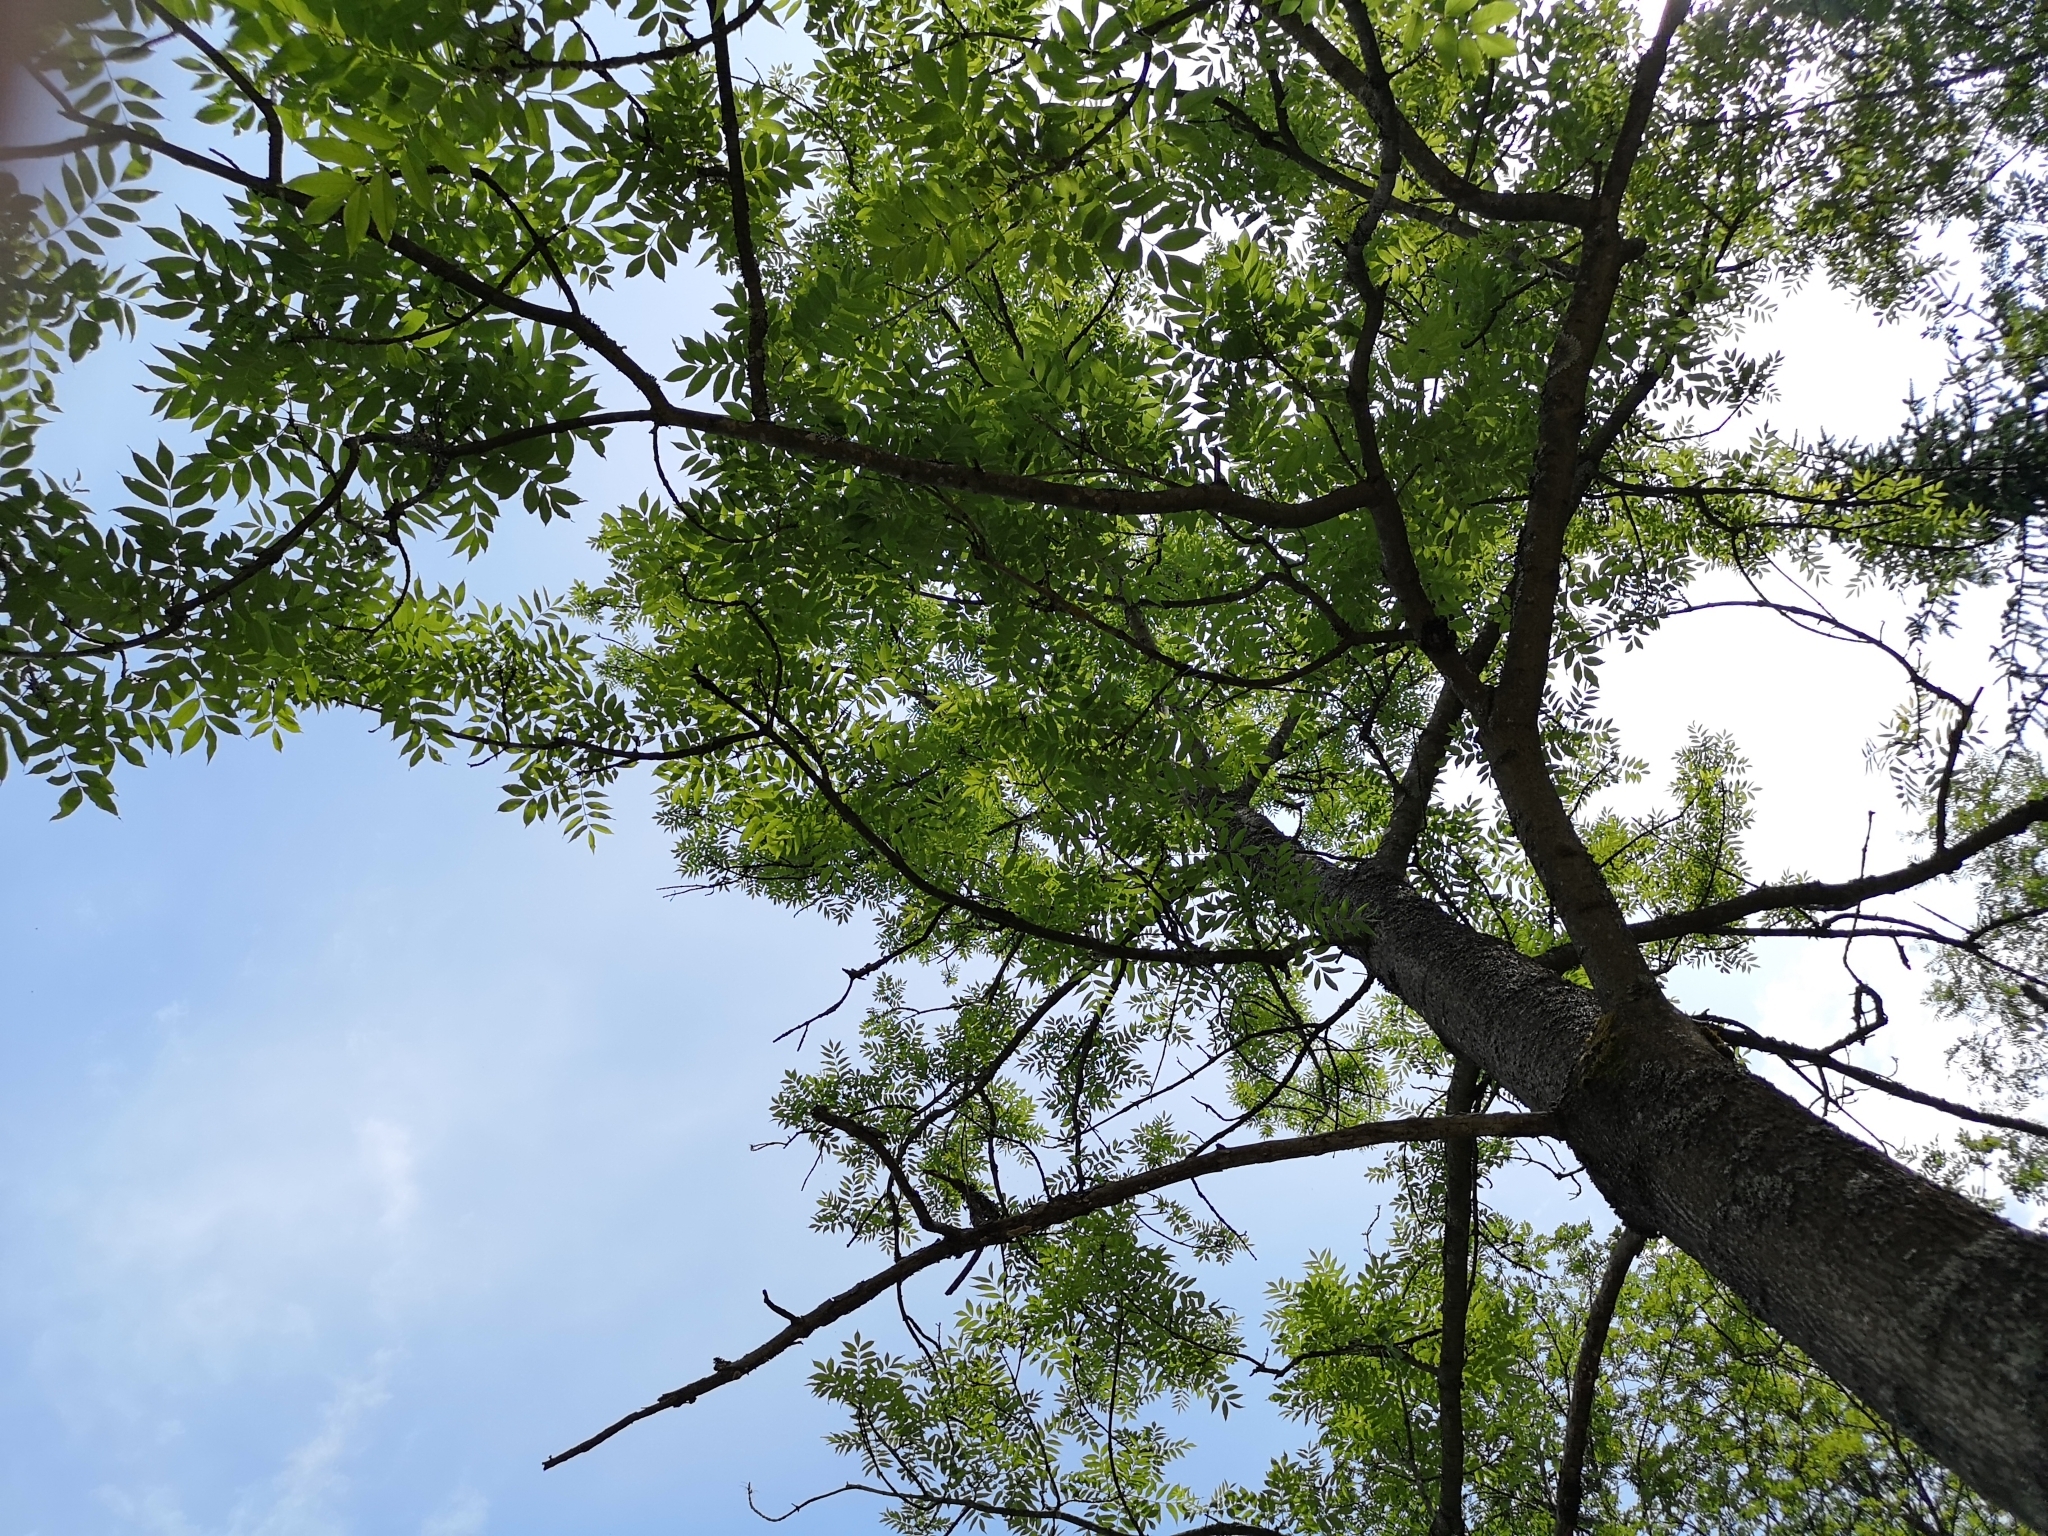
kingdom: Plantae
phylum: Tracheophyta
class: Magnoliopsida
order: Lamiales
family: Oleaceae
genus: Fraxinus
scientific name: Fraxinus excelsior
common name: European ash
